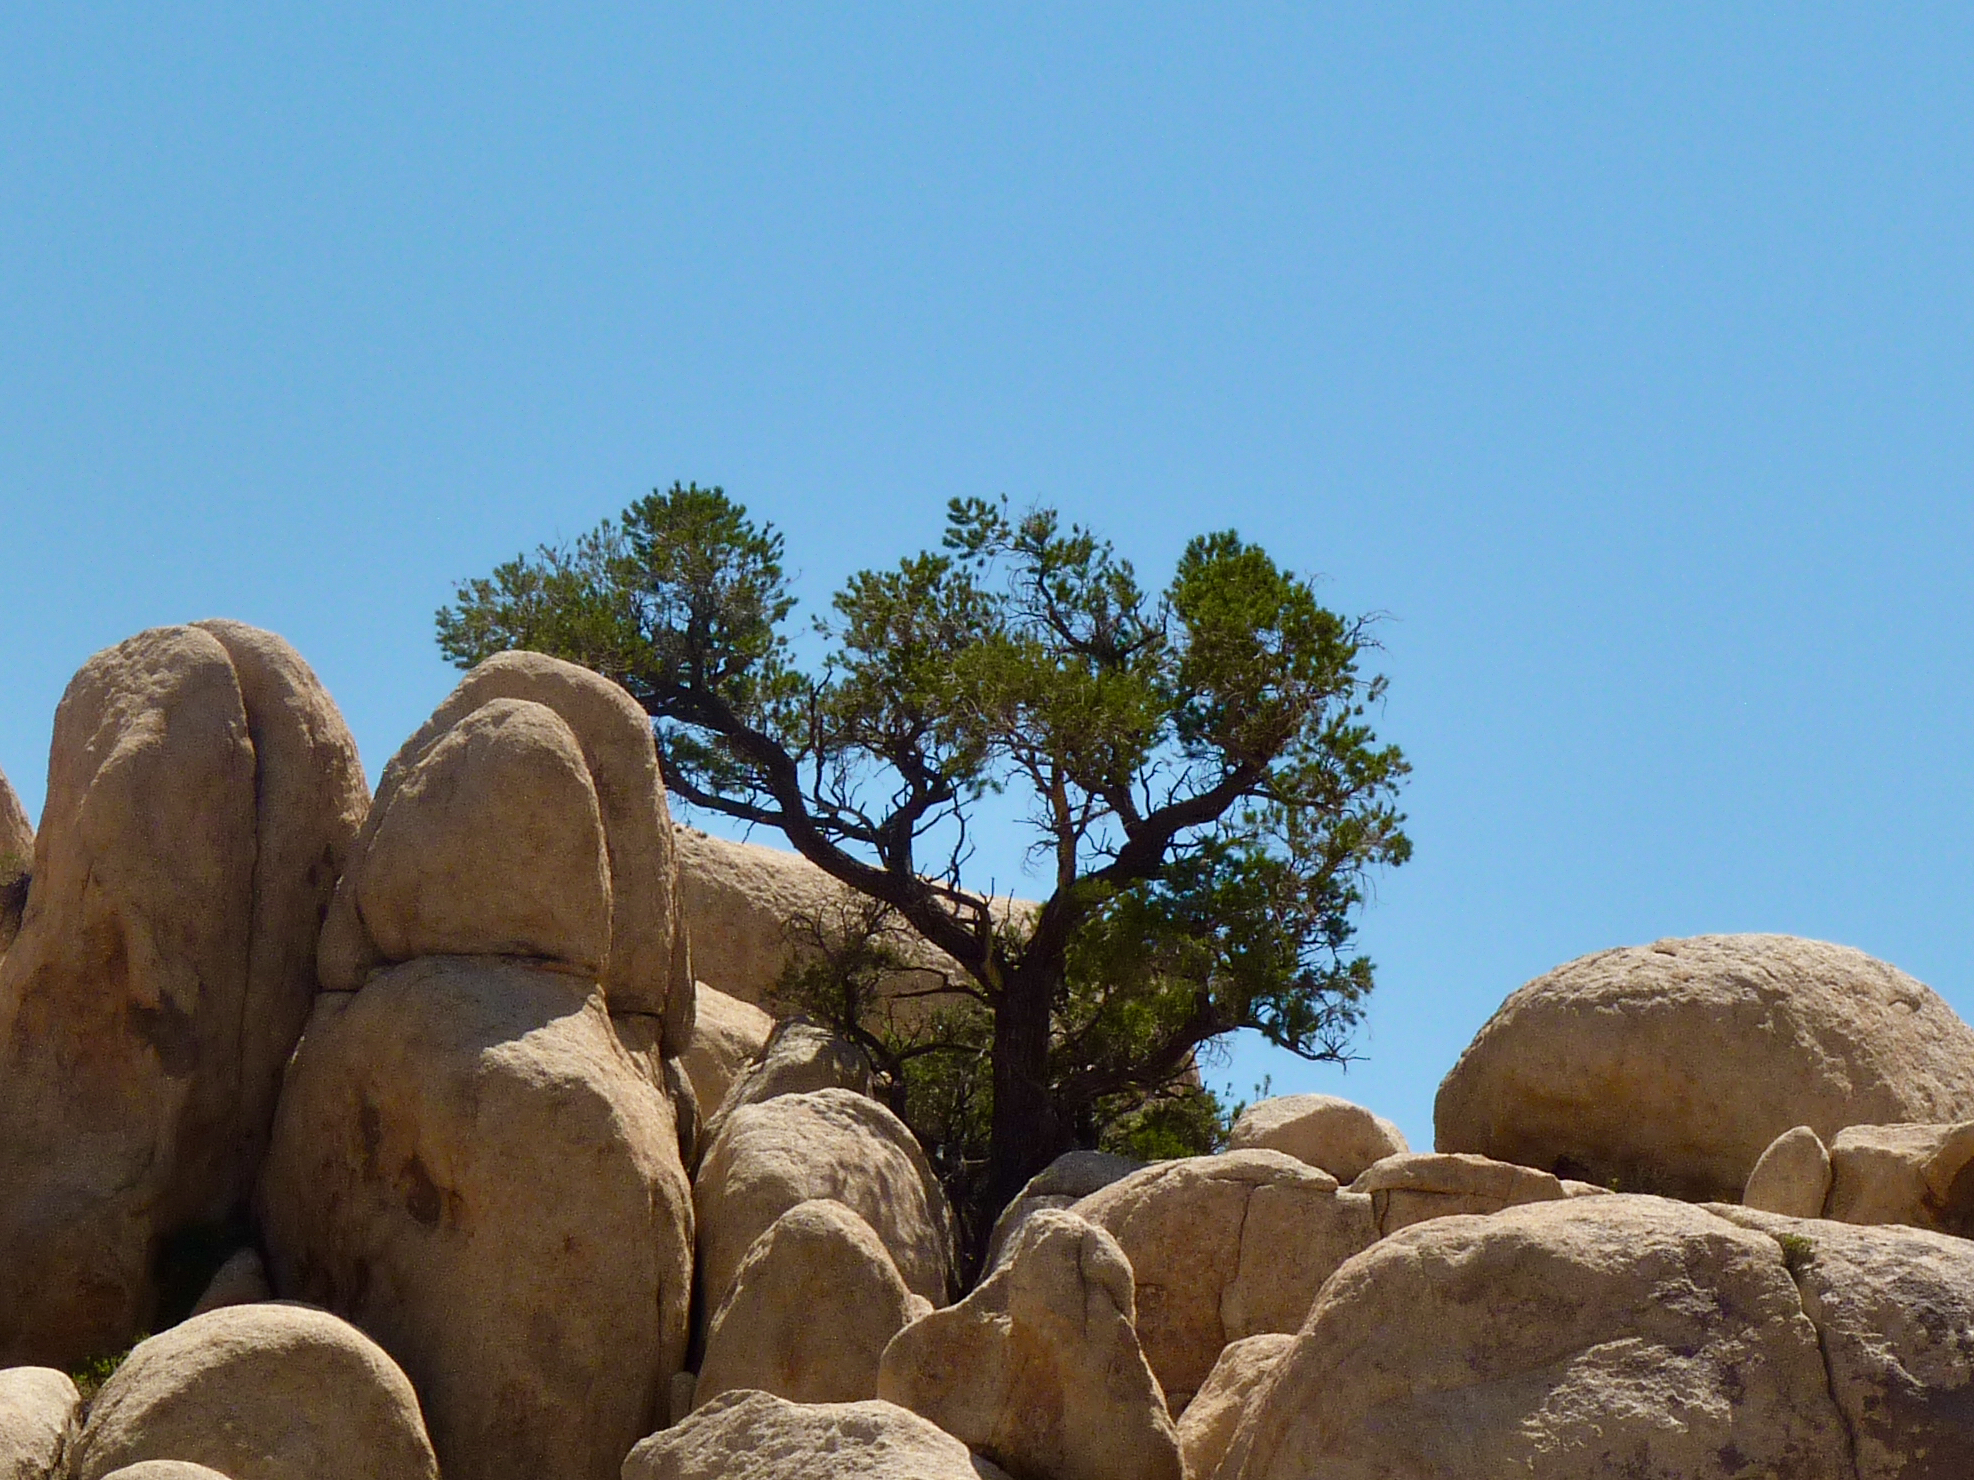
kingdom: Plantae
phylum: Tracheophyta
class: Pinopsida
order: Pinales
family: Pinaceae
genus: Pinus
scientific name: Pinus monophylla
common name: One-leaved nut pine
